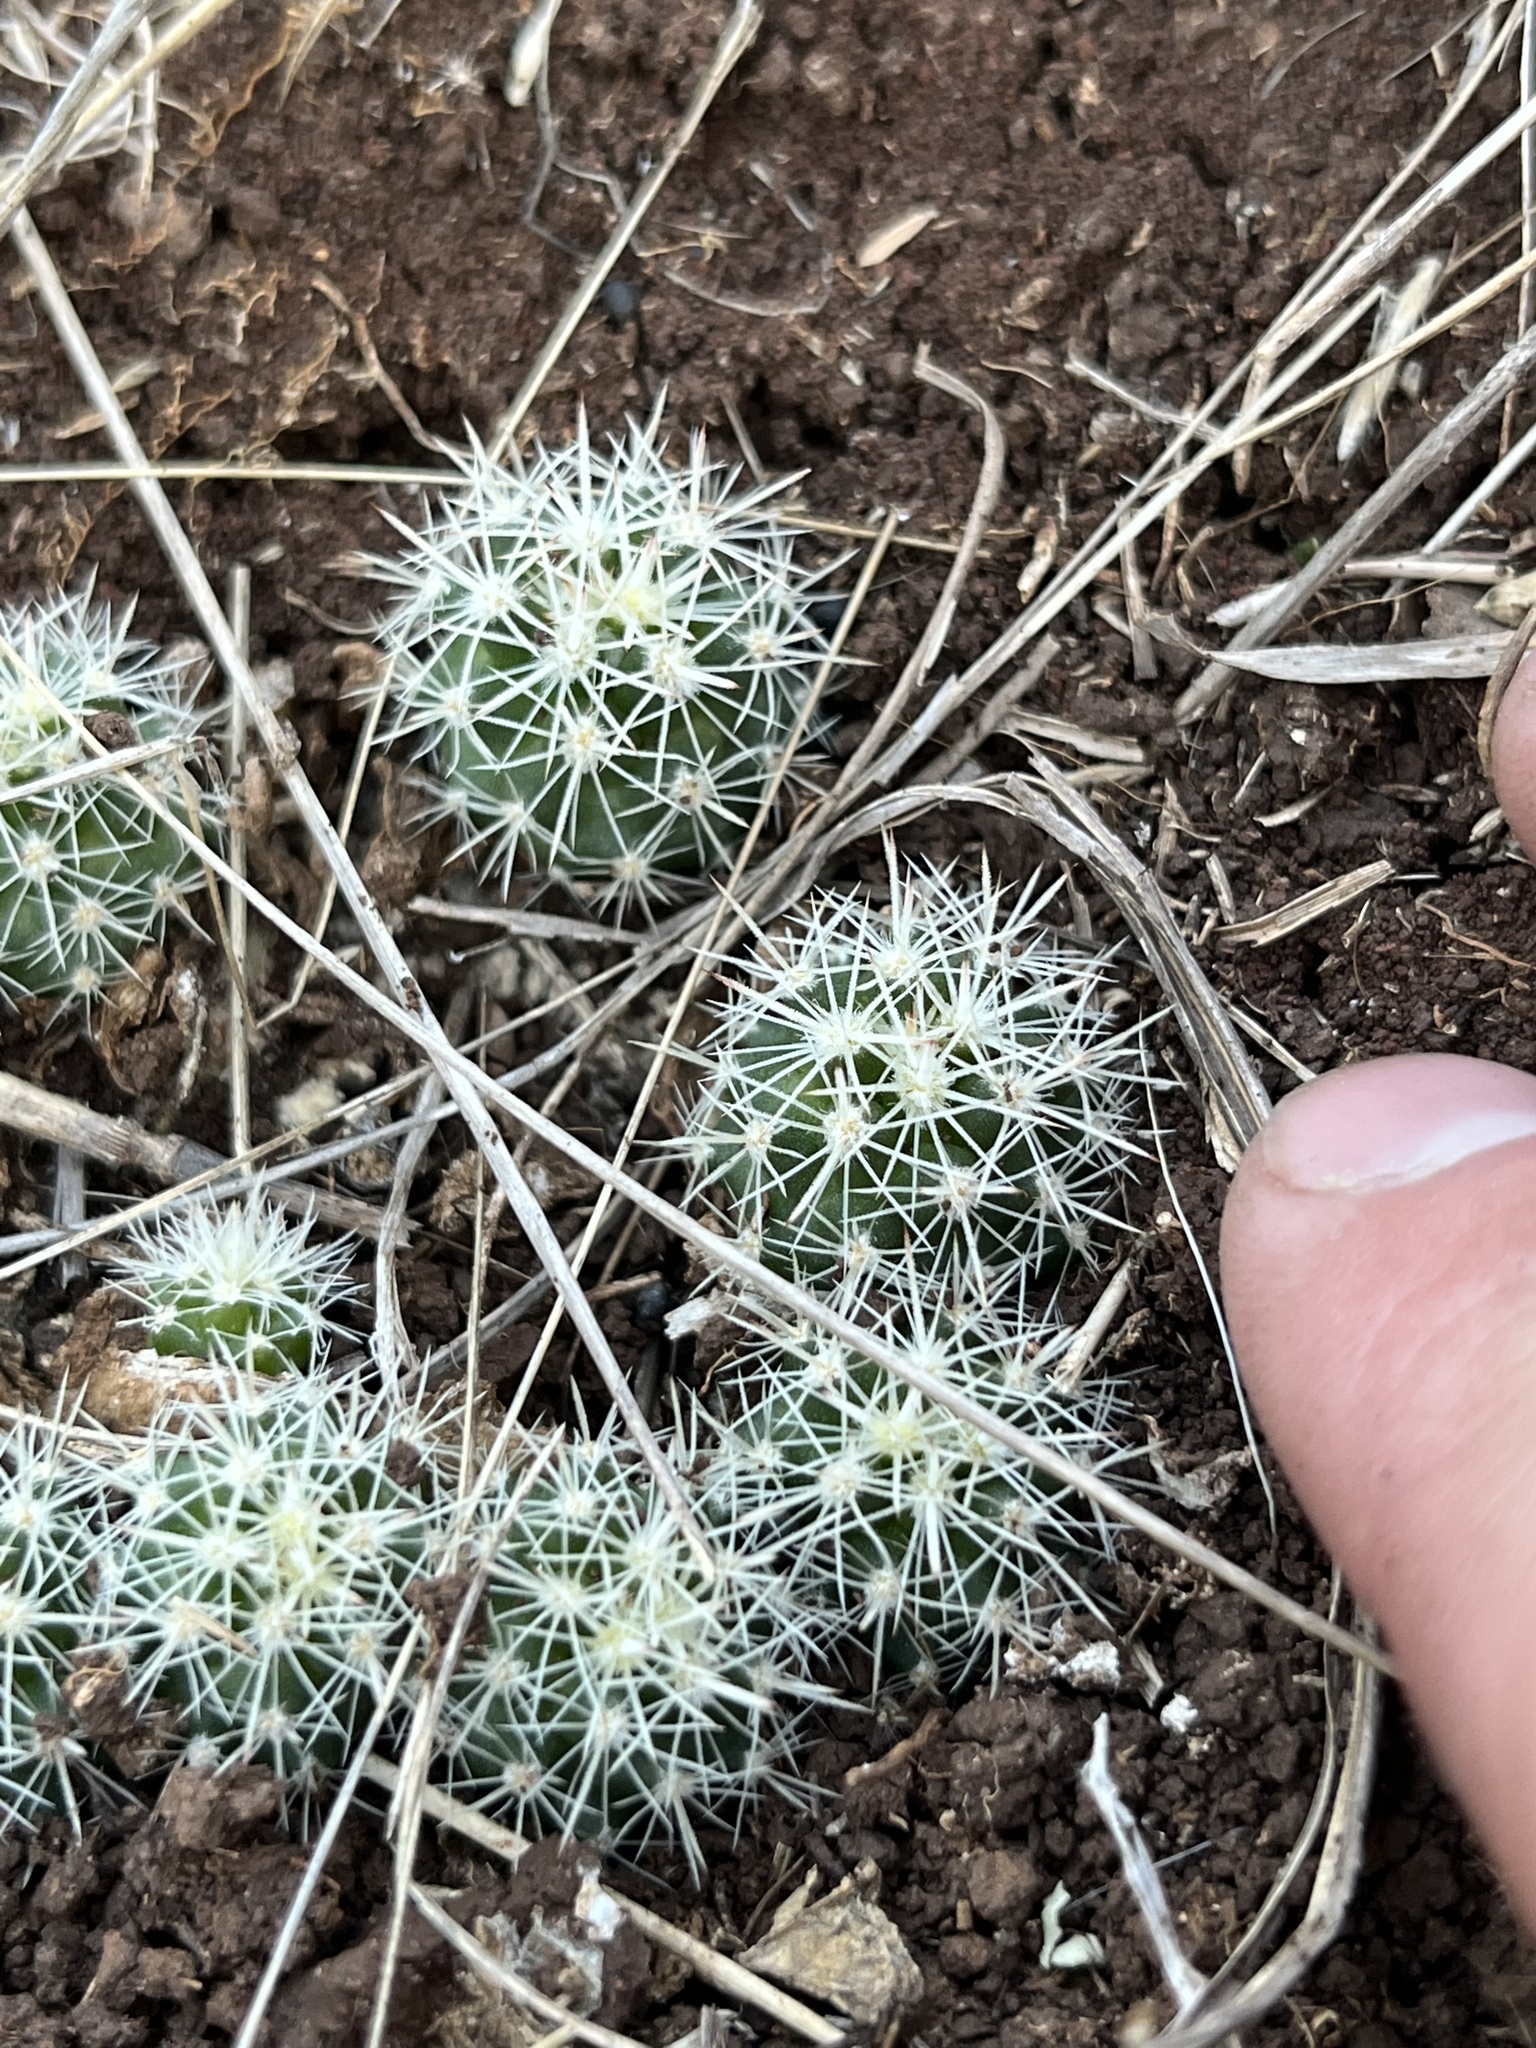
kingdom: Plantae
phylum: Tracheophyta
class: Magnoliopsida
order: Caryophyllales
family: Cactaceae
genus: Coryphantha
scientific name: Coryphantha sulcata
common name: Finger cactus
